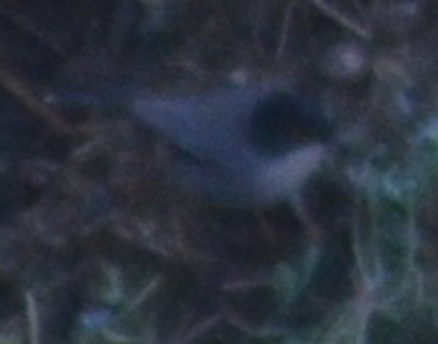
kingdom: Animalia
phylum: Chordata
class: Aves
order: Passeriformes
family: Sylviidae
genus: Curruca
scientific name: Curruca melanocephala
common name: Sardinian warbler
